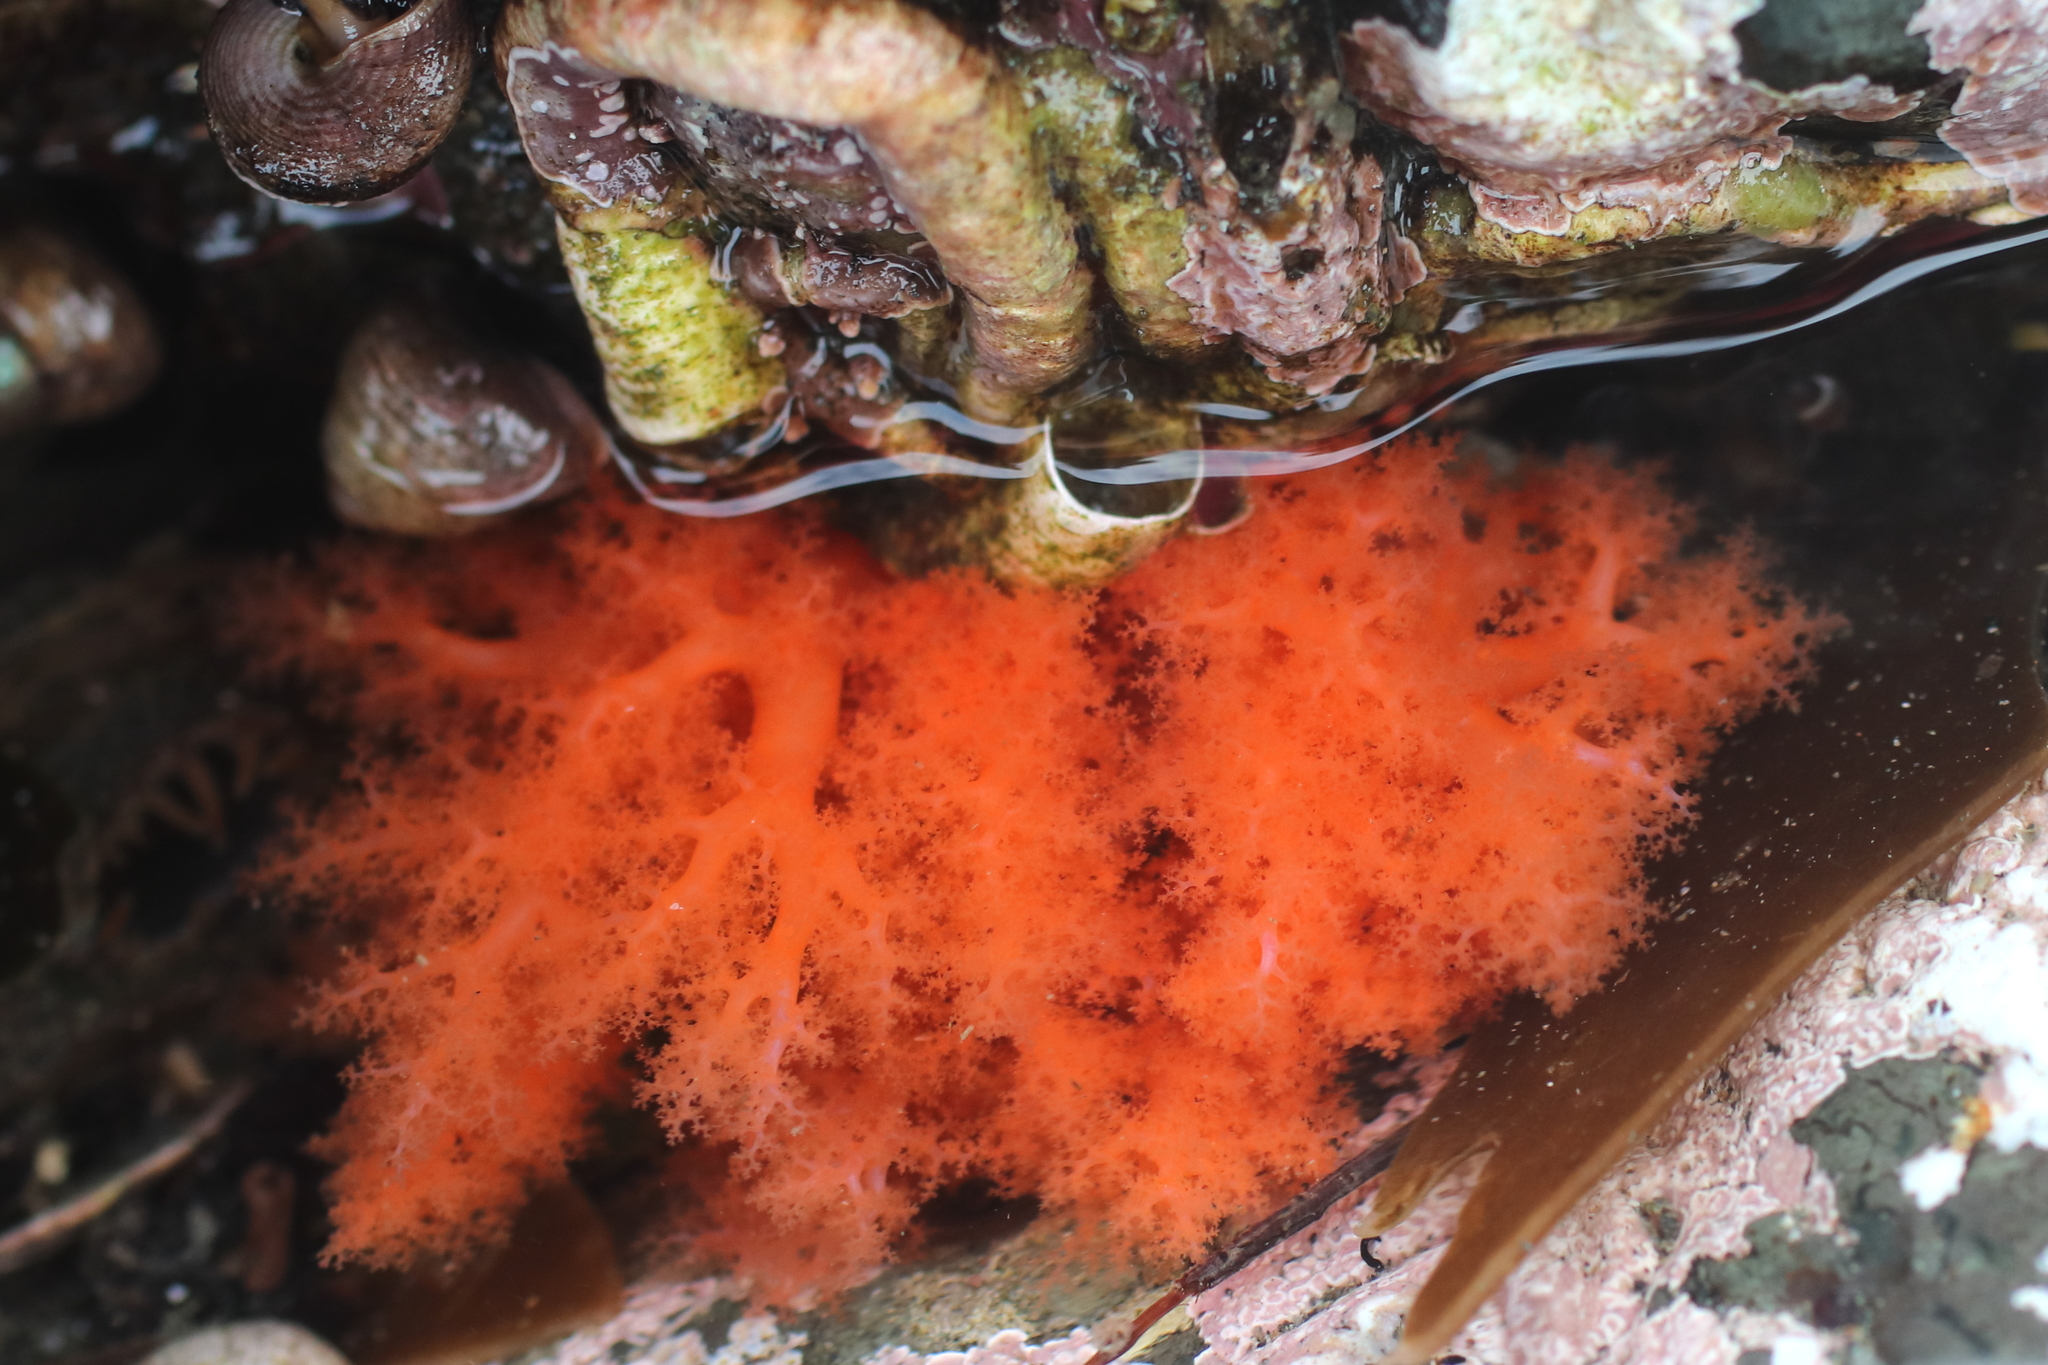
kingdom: Animalia
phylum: Echinodermata
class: Holothuroidea
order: Dendrochirotida
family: Cucumariidae
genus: Cucumaria
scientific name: Cucumaria miniata
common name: Orange sea cucumber
